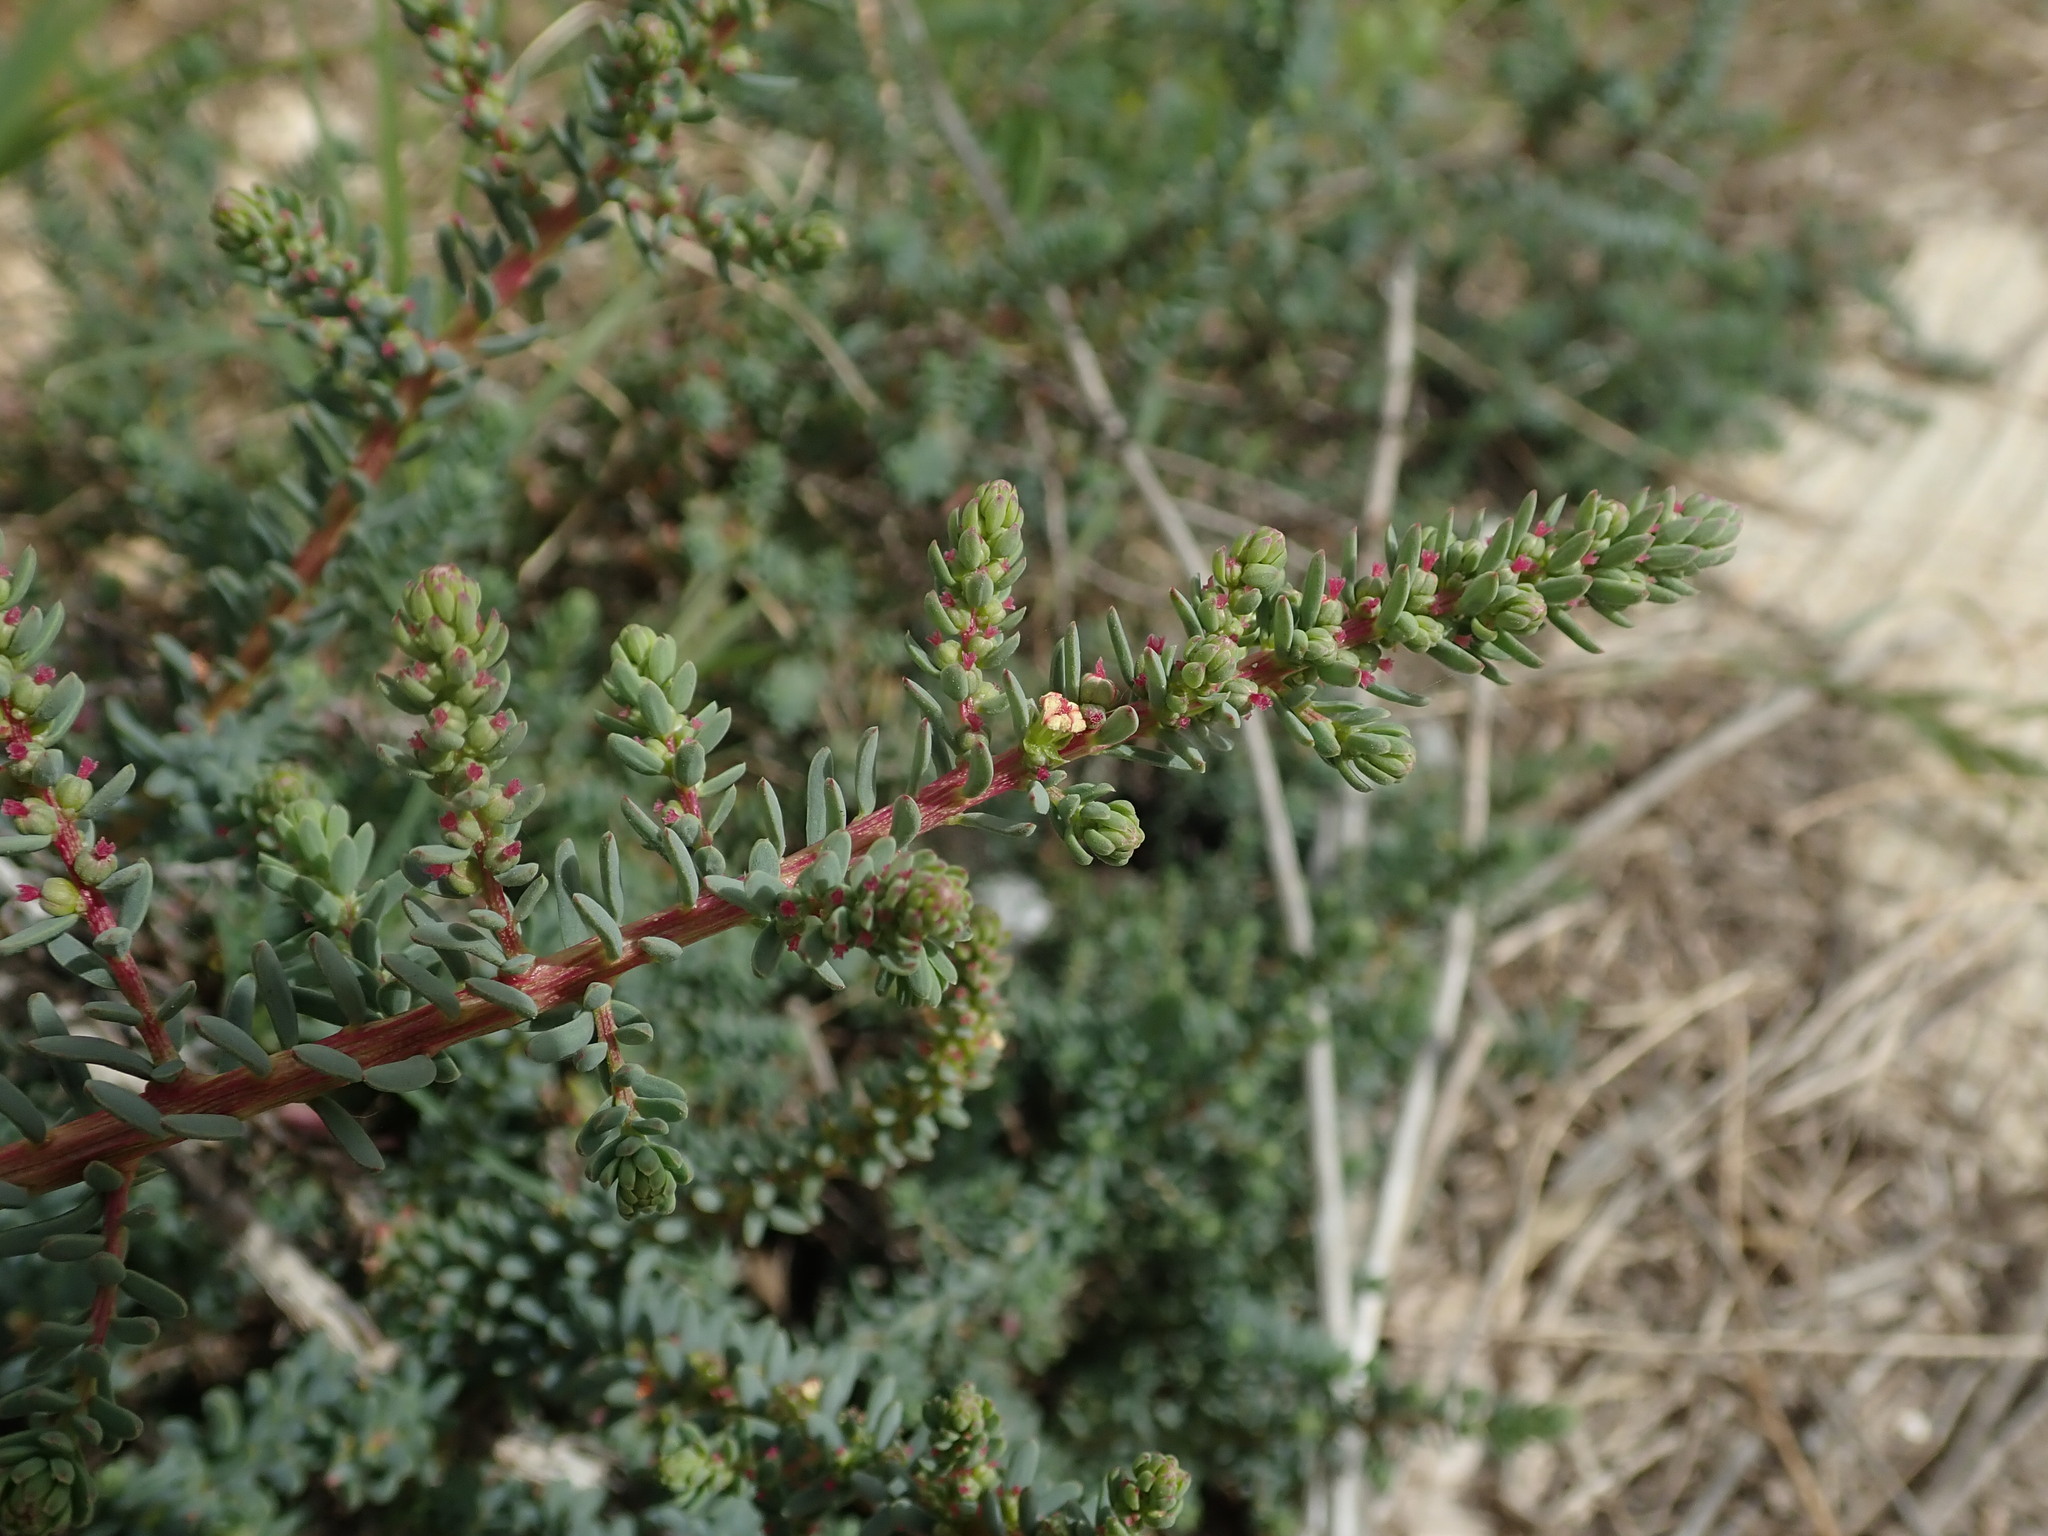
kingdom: Plantae
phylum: Tracheophyta
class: Magnoliopsida
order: Caryophyllales
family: Amaranthaceae
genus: Suaeda
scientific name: Suaeda vera
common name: Shrubby sea-blite
